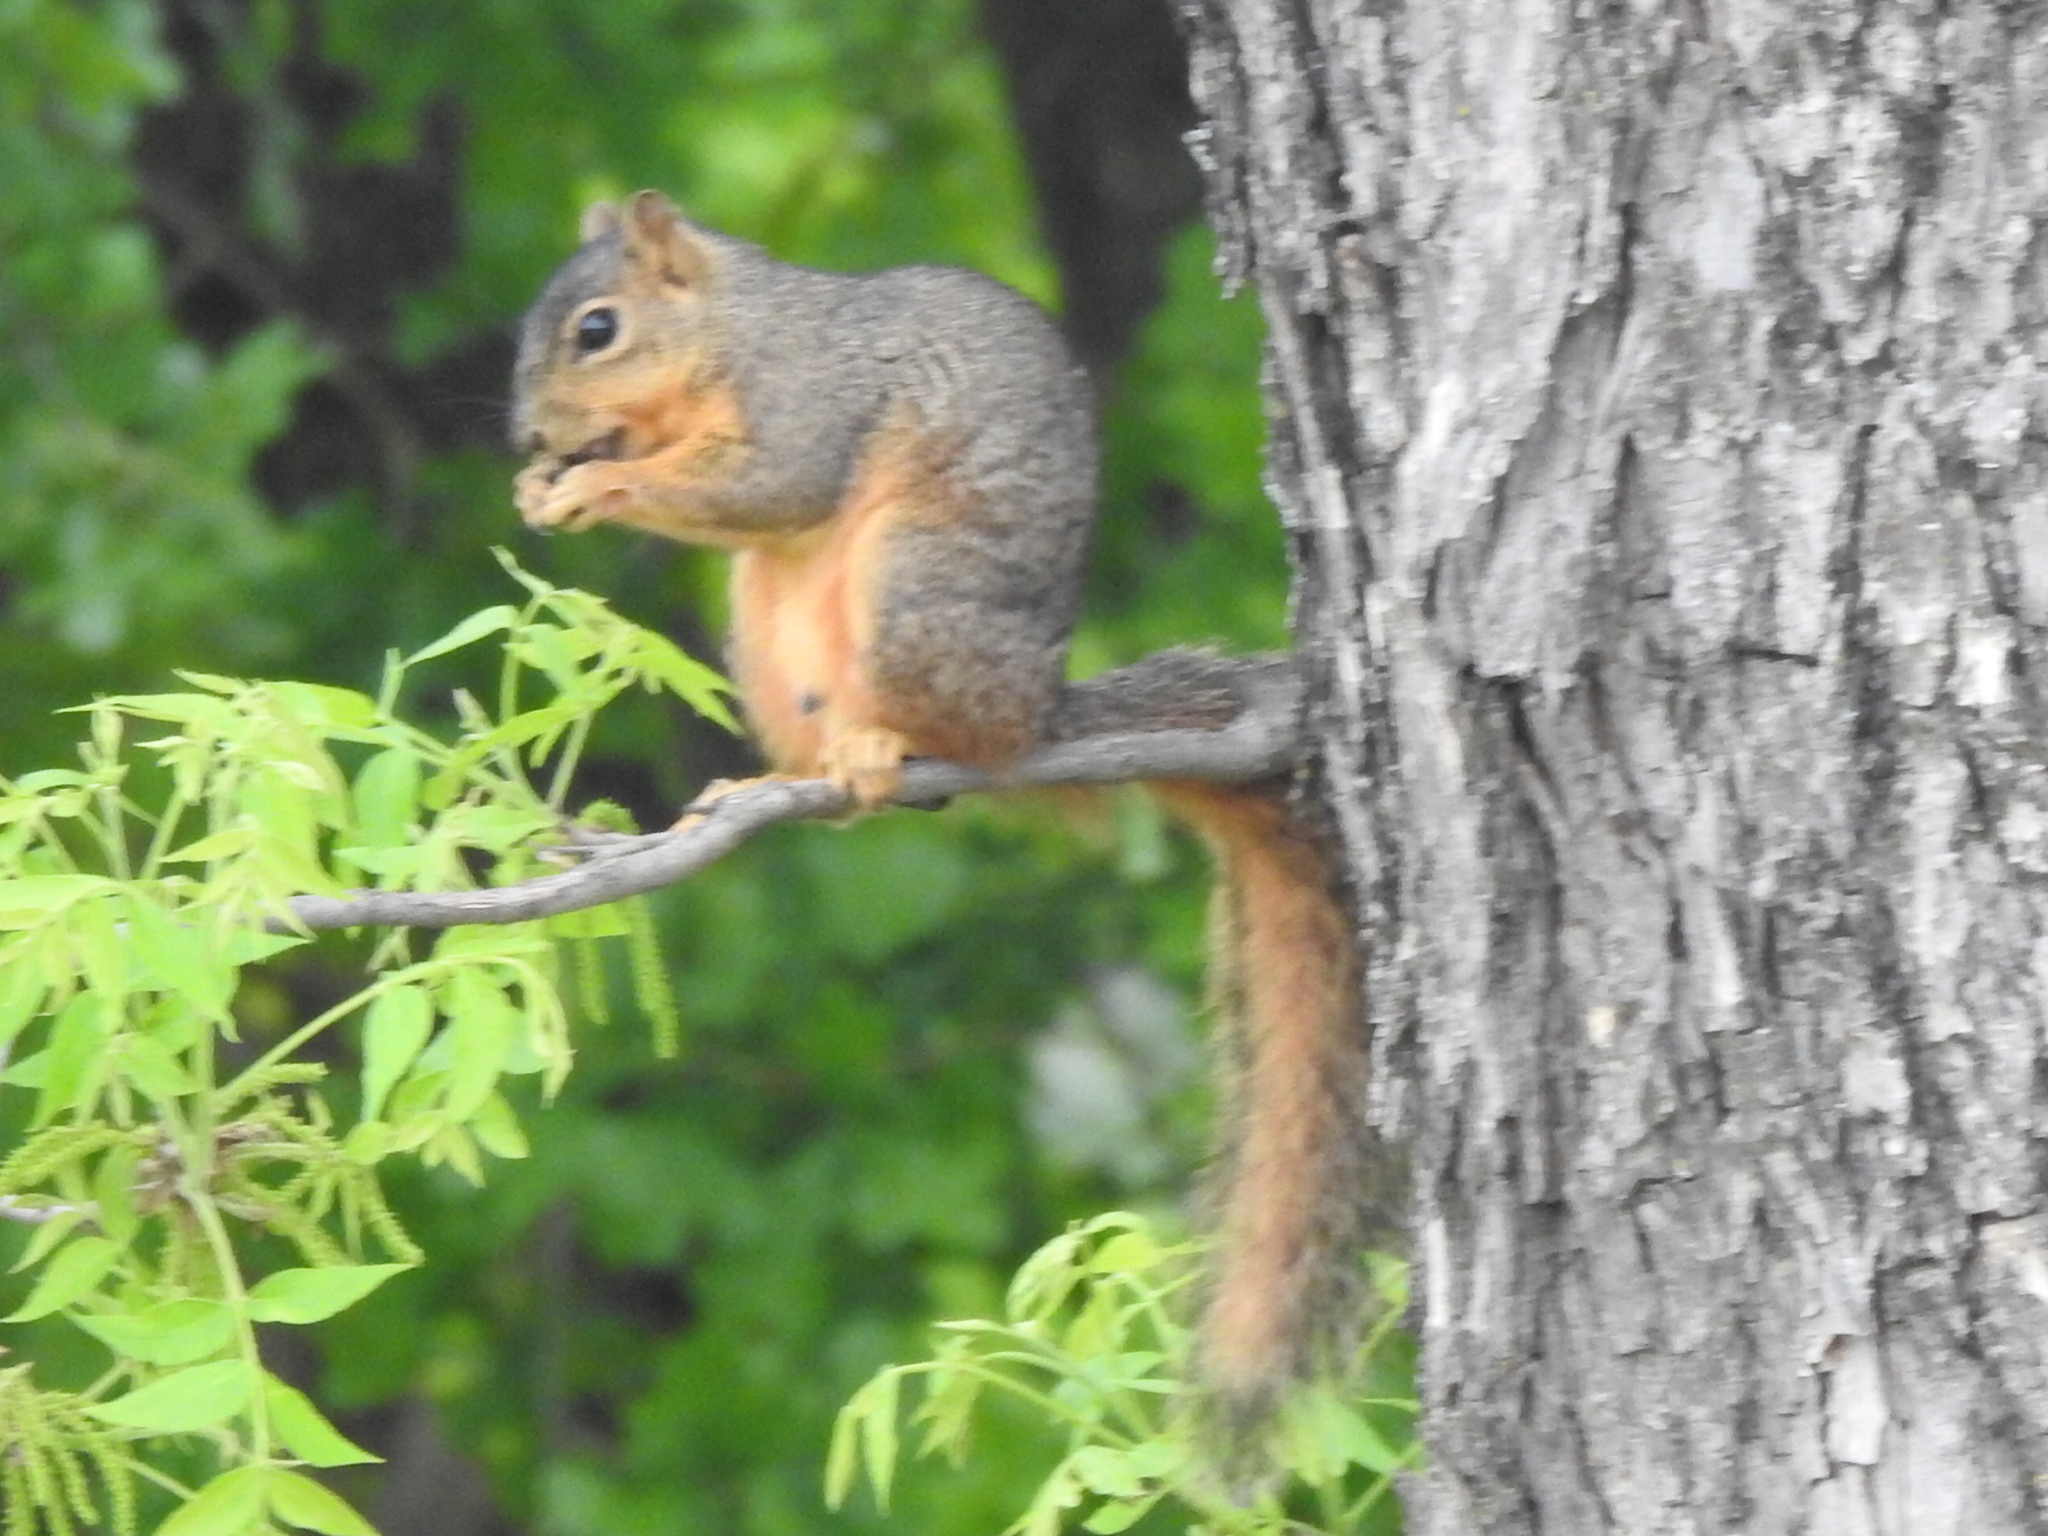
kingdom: Animalia
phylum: Chordata
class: Mammalia
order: Rodentia
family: Sciuridae
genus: Sciurus
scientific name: Sciurus niger
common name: Fox squirrel
